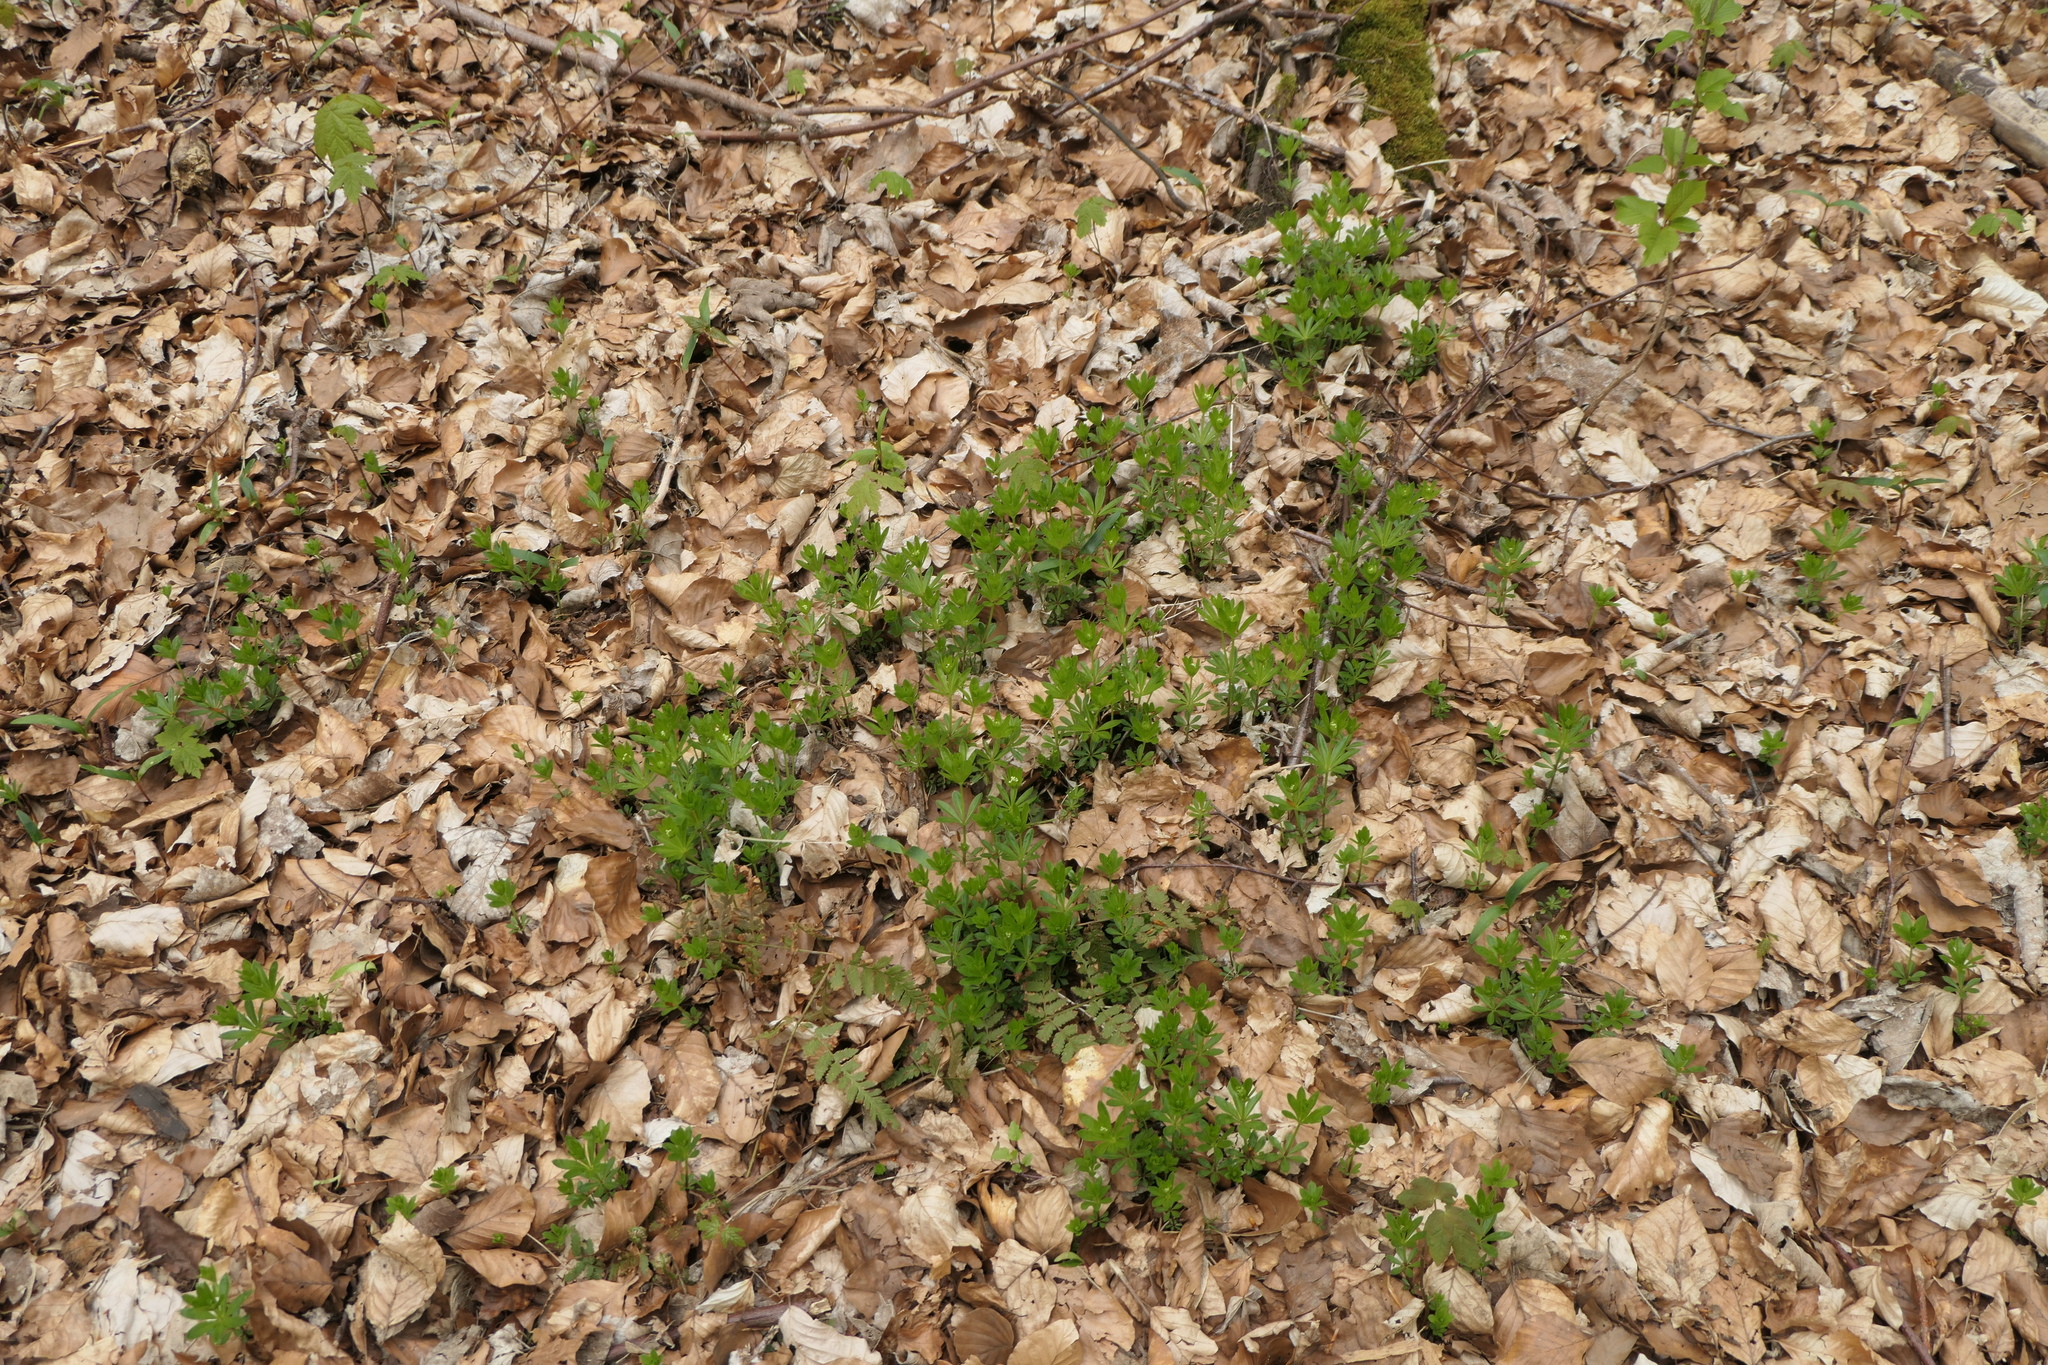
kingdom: Plantae
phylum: Tracheophyta
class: Magnoliopsida
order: Gentianales
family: Rubiaceae
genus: Galium
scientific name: Galium odoratum
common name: Sweet woodruff
